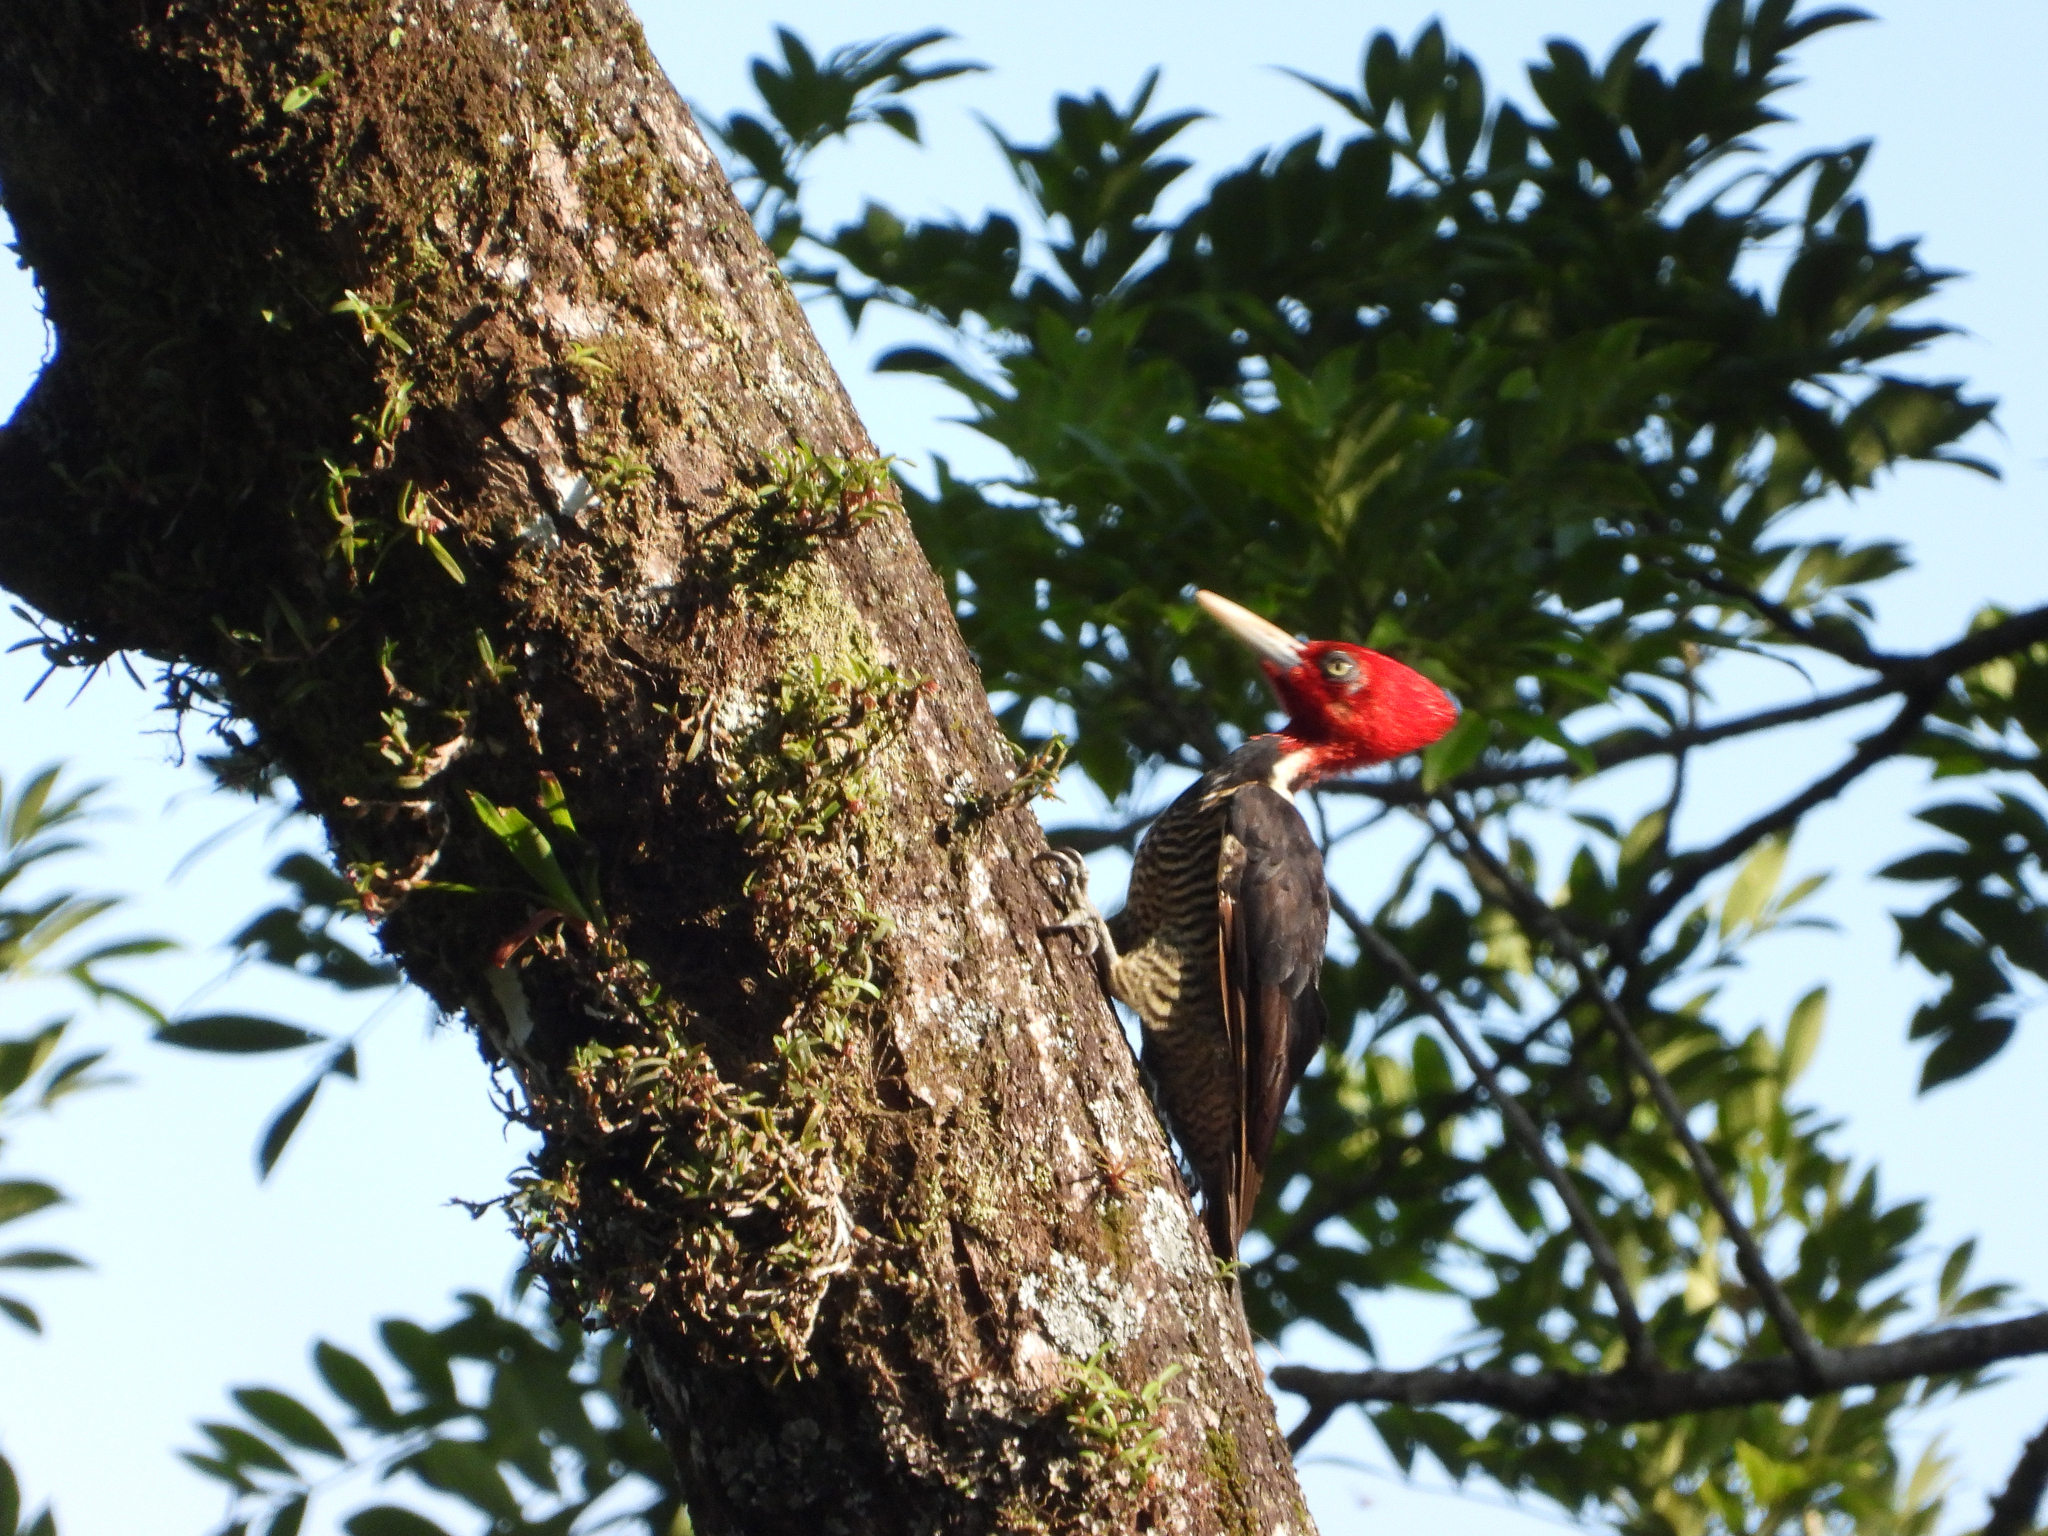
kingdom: Animalia
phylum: Chordata
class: Aves
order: Piciformes
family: Picidae
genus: Campephilus
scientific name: Campephilus guatemalensis
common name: Pale-billed woodpecker
